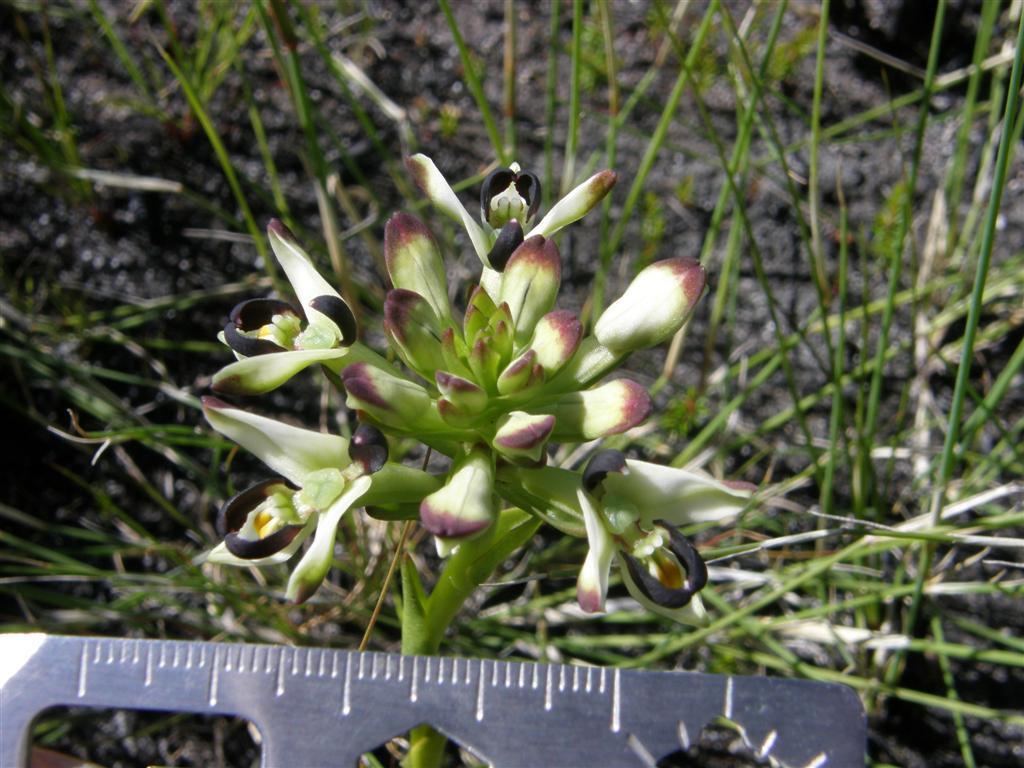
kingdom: Plantae
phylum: Tracheophyta
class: Liliopsida
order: Asparagales
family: Orchidaceae
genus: Disa
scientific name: Disa bivalvata
